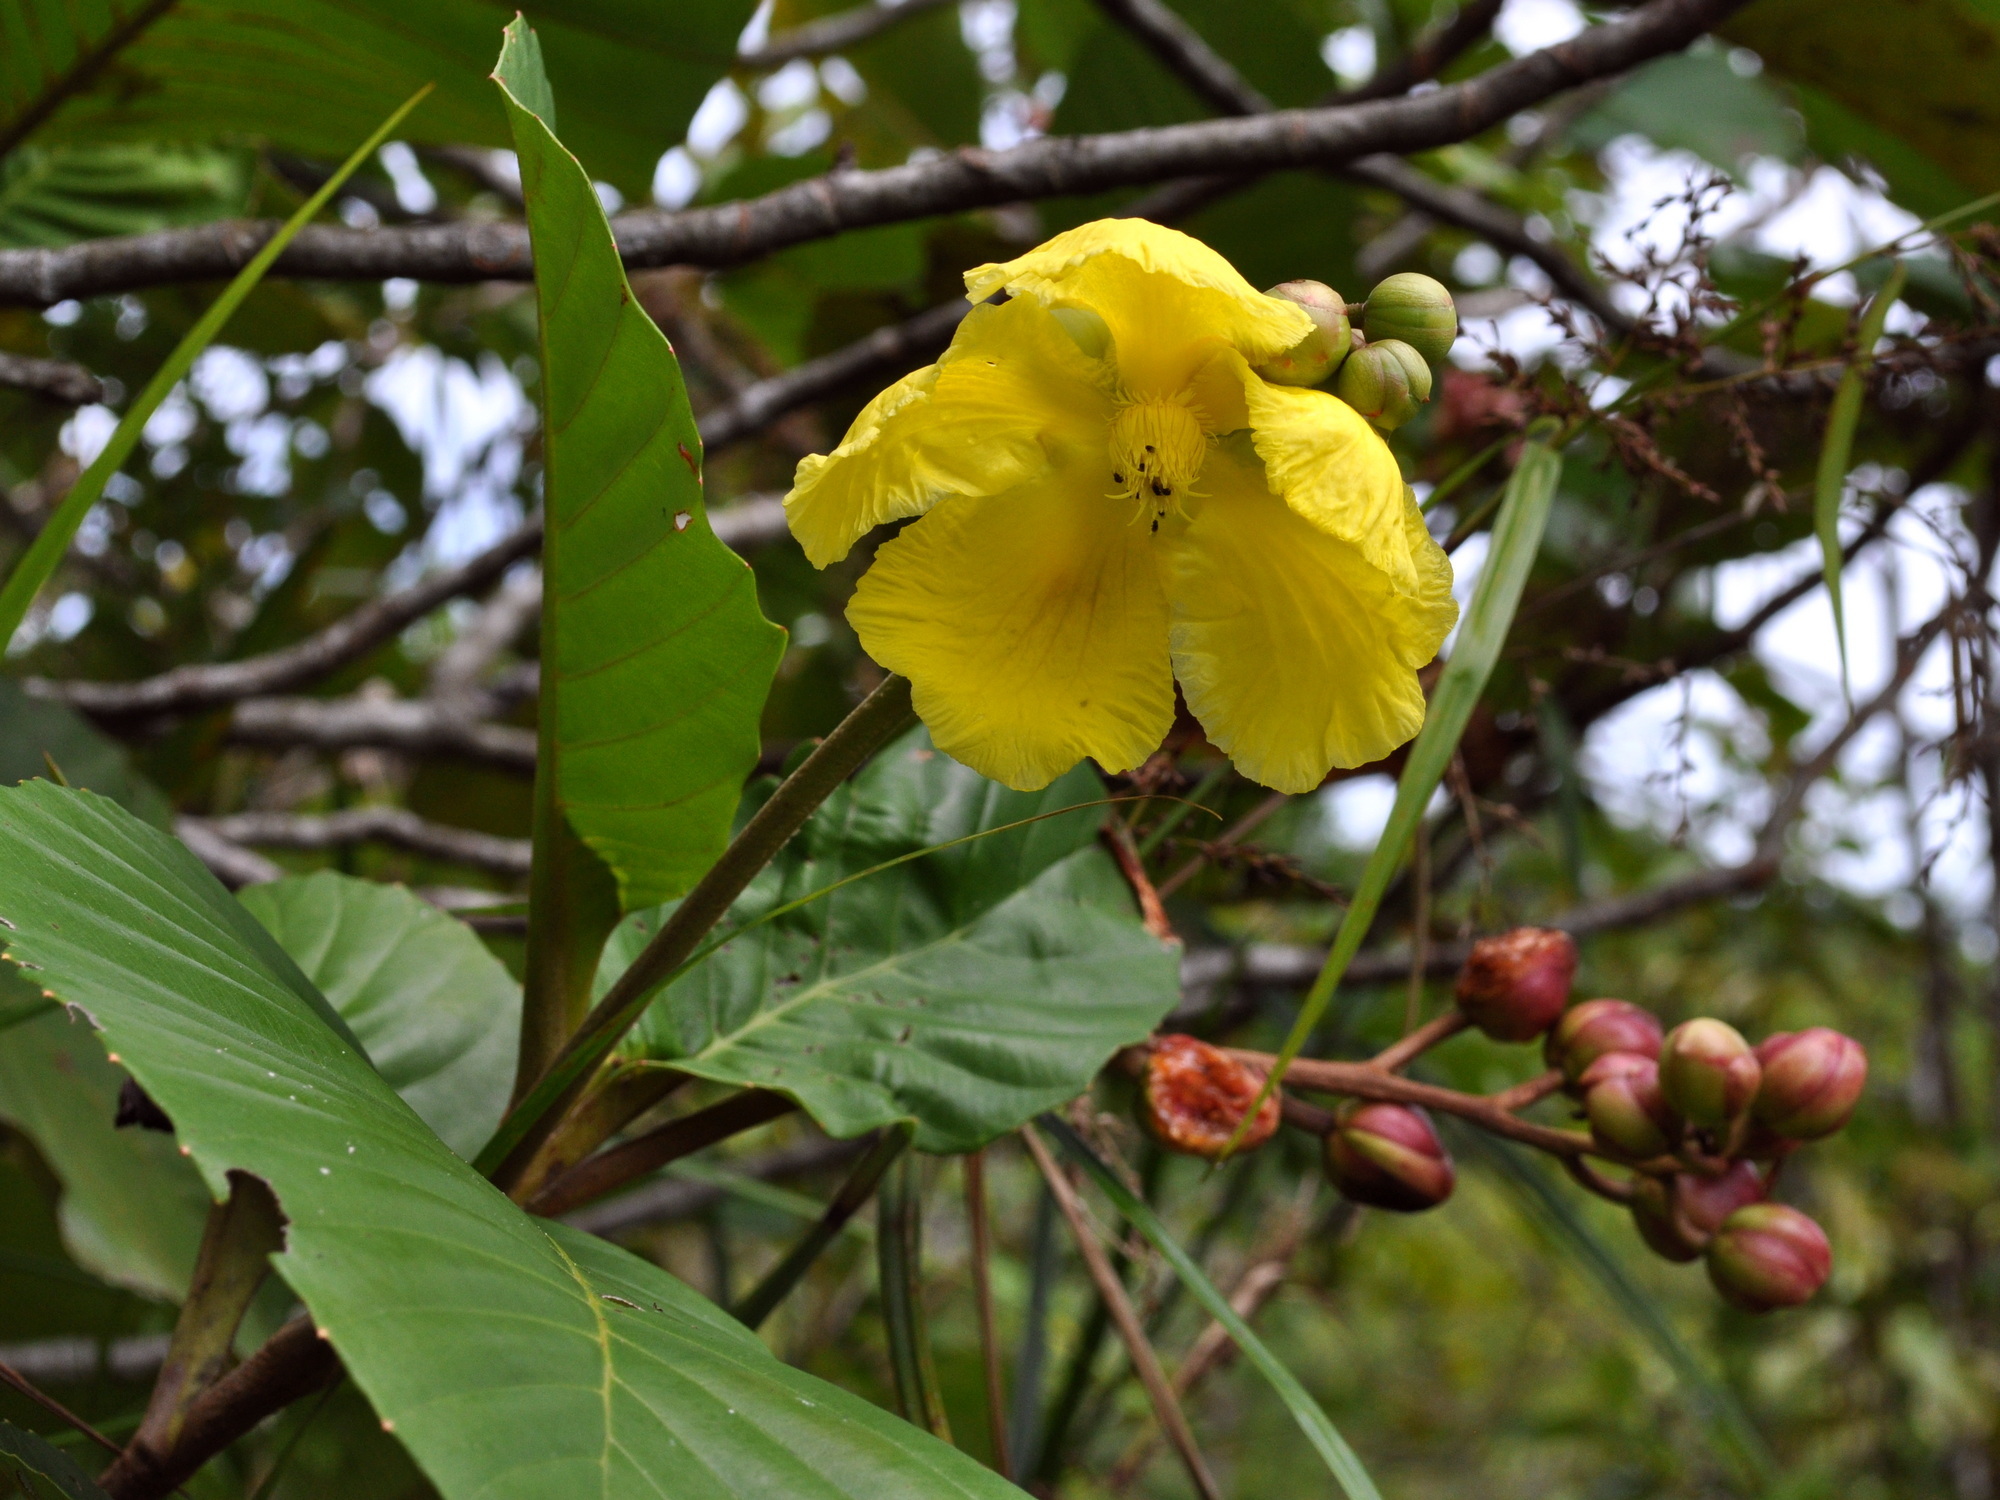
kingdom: Plantae
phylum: Tracheophyta
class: Magnoliopsida
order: Dilleniales
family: Dilleniaceae
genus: Dillenia
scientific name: Dillenia suffruticosa
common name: Shrubby dillenia
